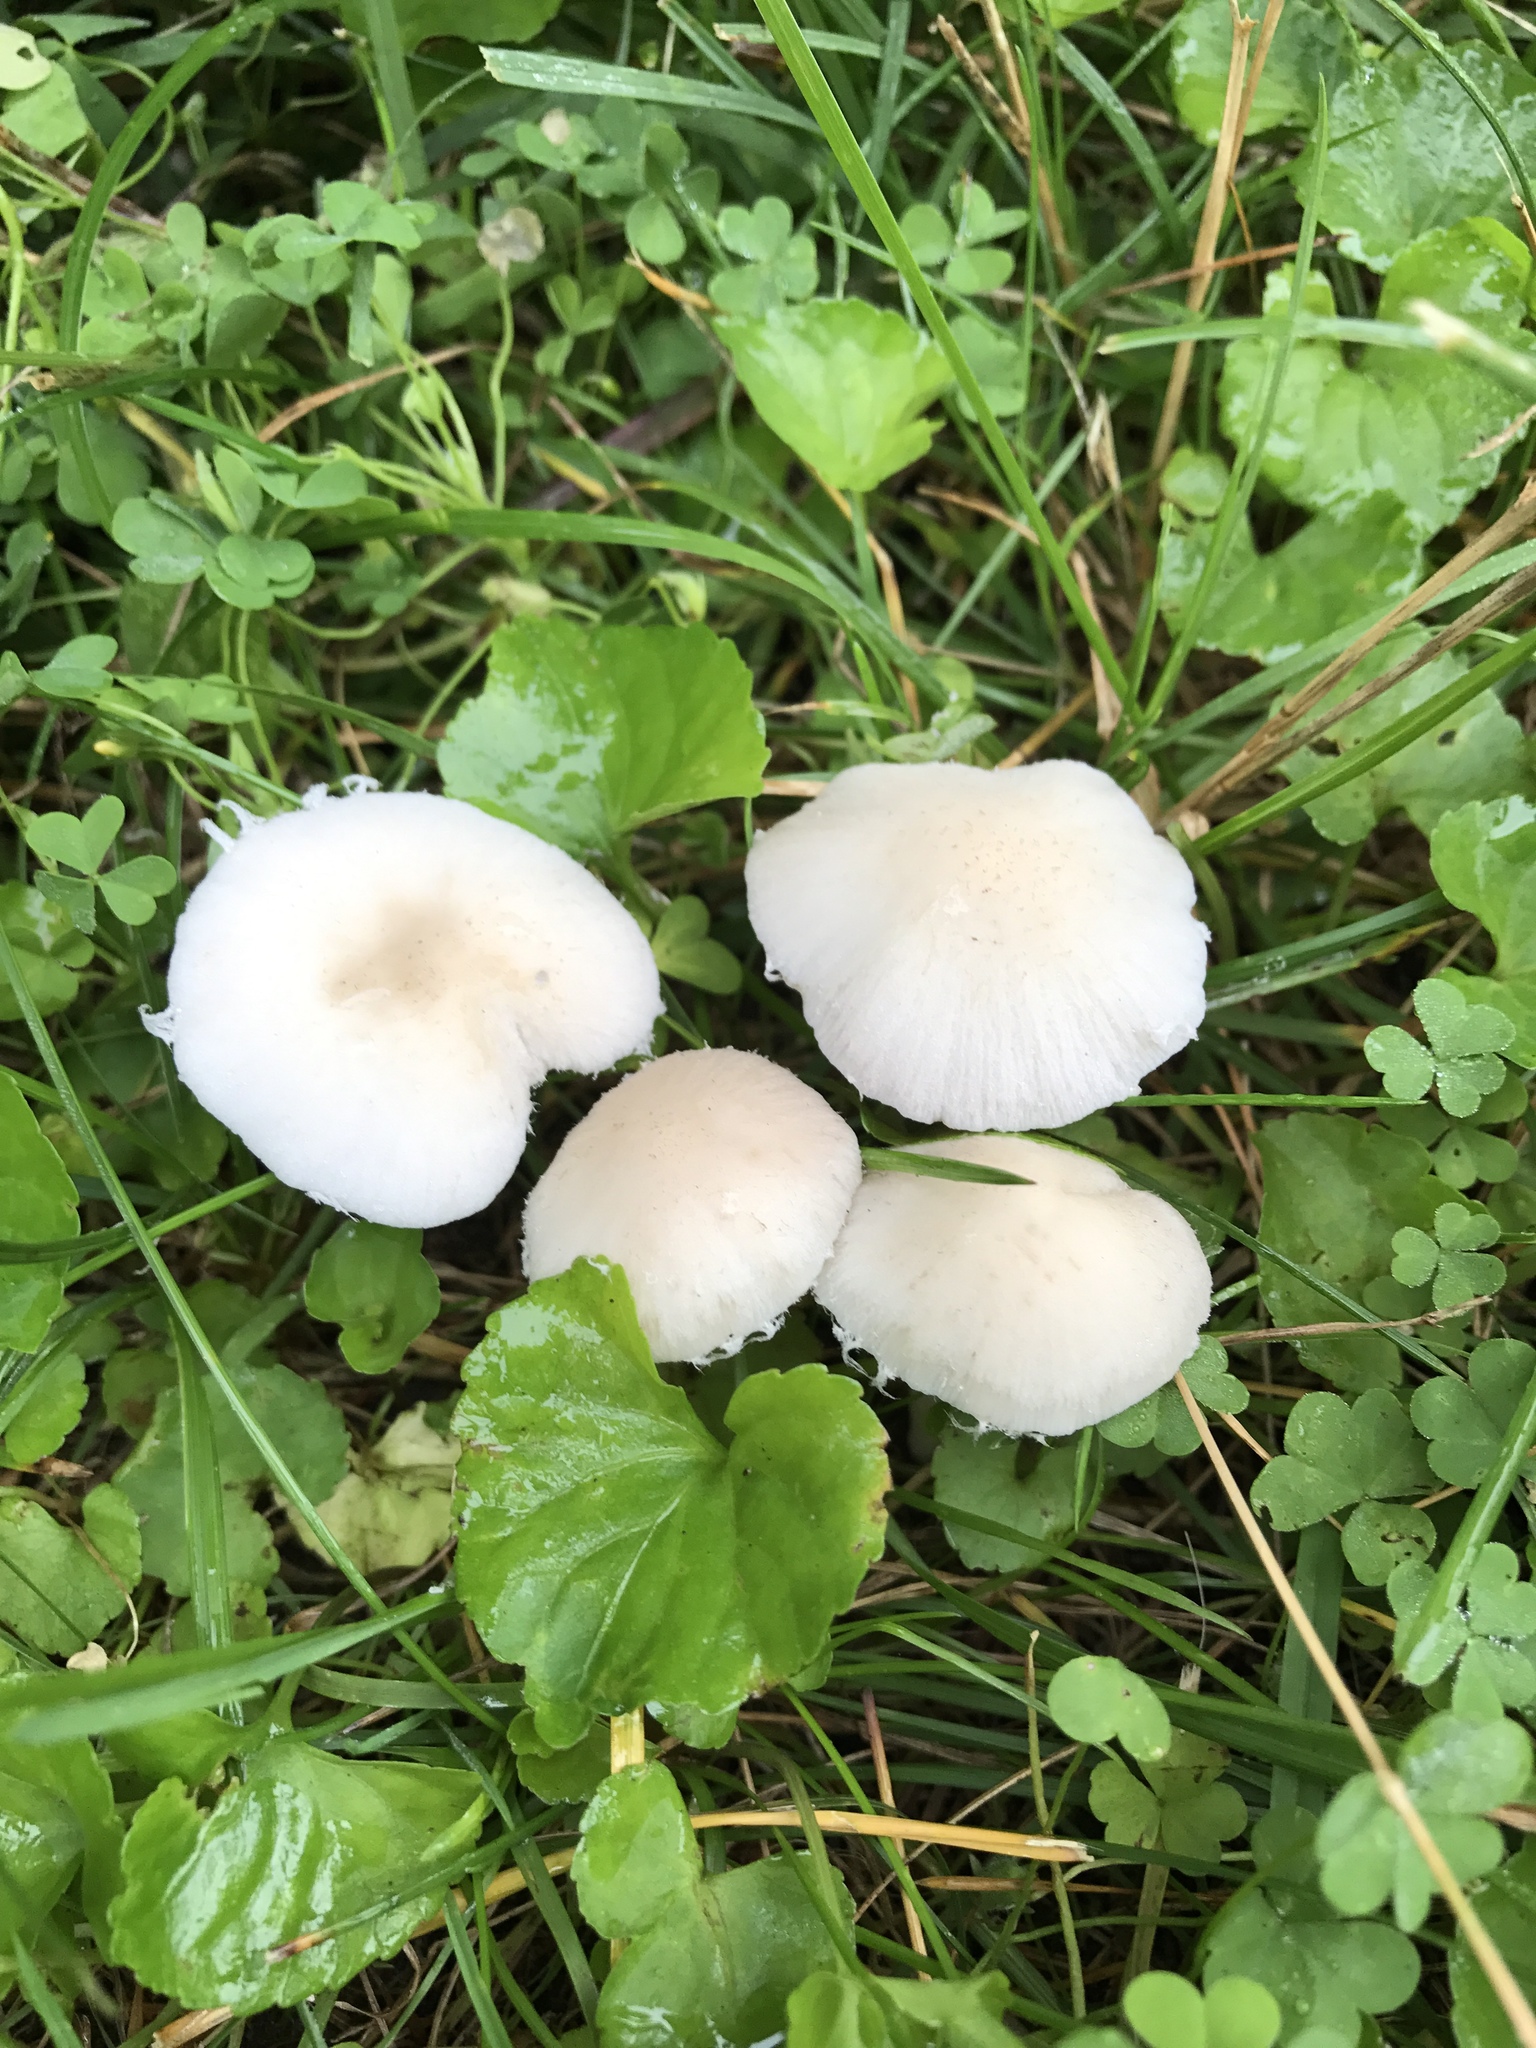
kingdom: Fungi
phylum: Basidiomycota
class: Agaricomycetes
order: Agaricales
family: Psathyrellaceae
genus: Candolleomyces
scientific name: Candolleomyces candolleanus
